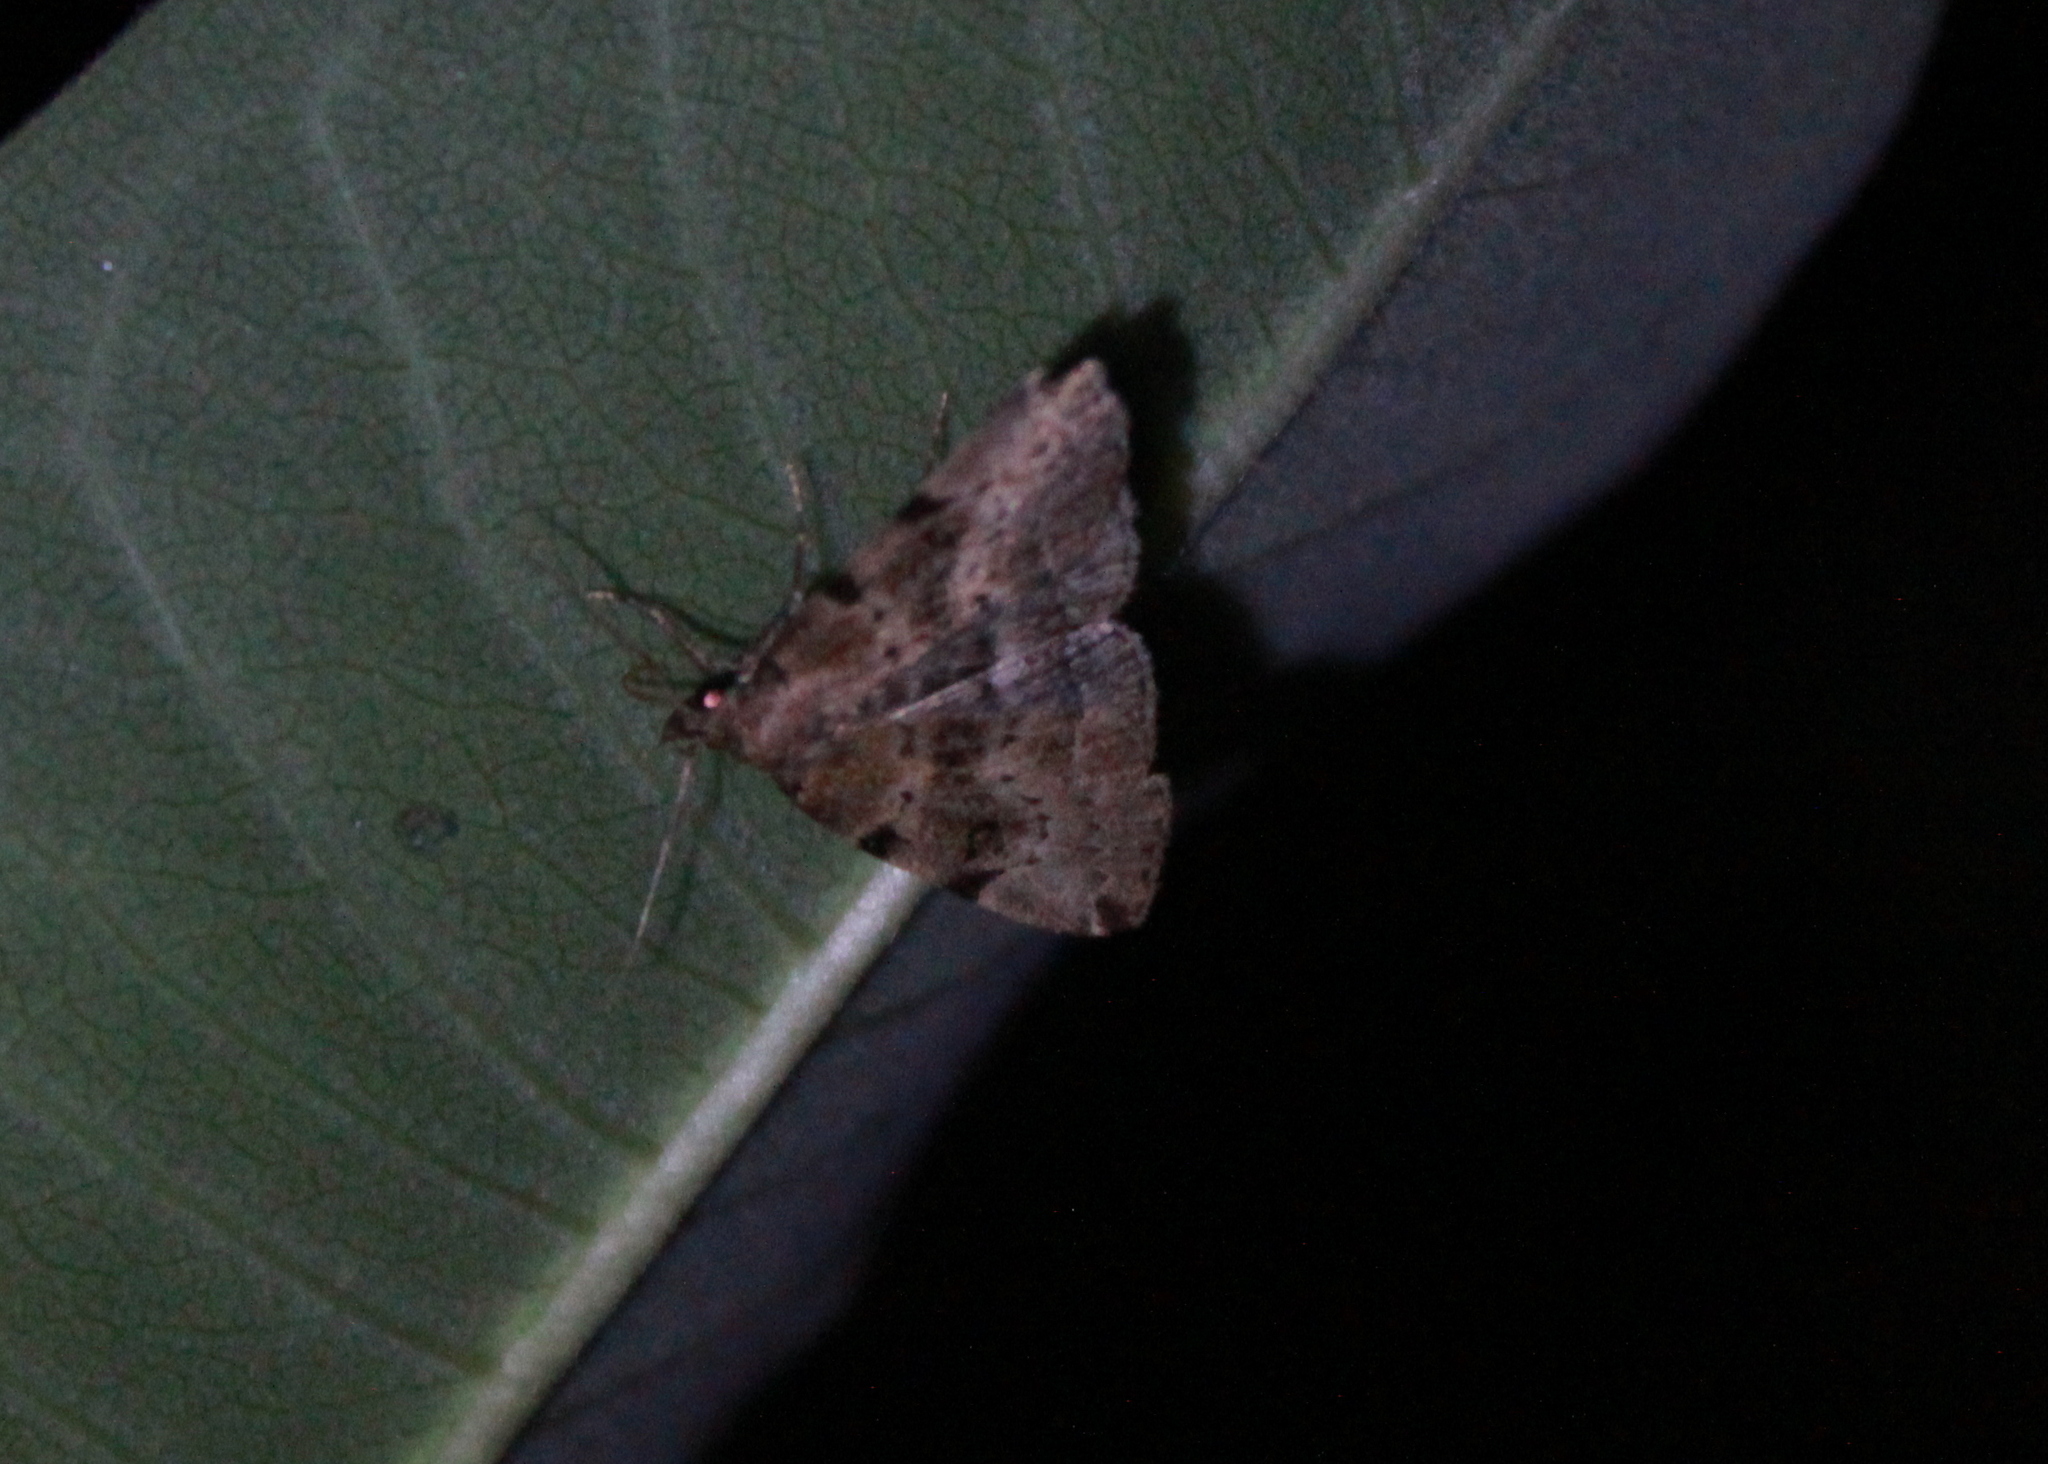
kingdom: Animalia
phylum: Arthropoda
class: Insecta
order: Lepidoptera
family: Erebidae
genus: Zanclognatha
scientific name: Zanclognatha lituralis
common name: Lettered fan-foot
